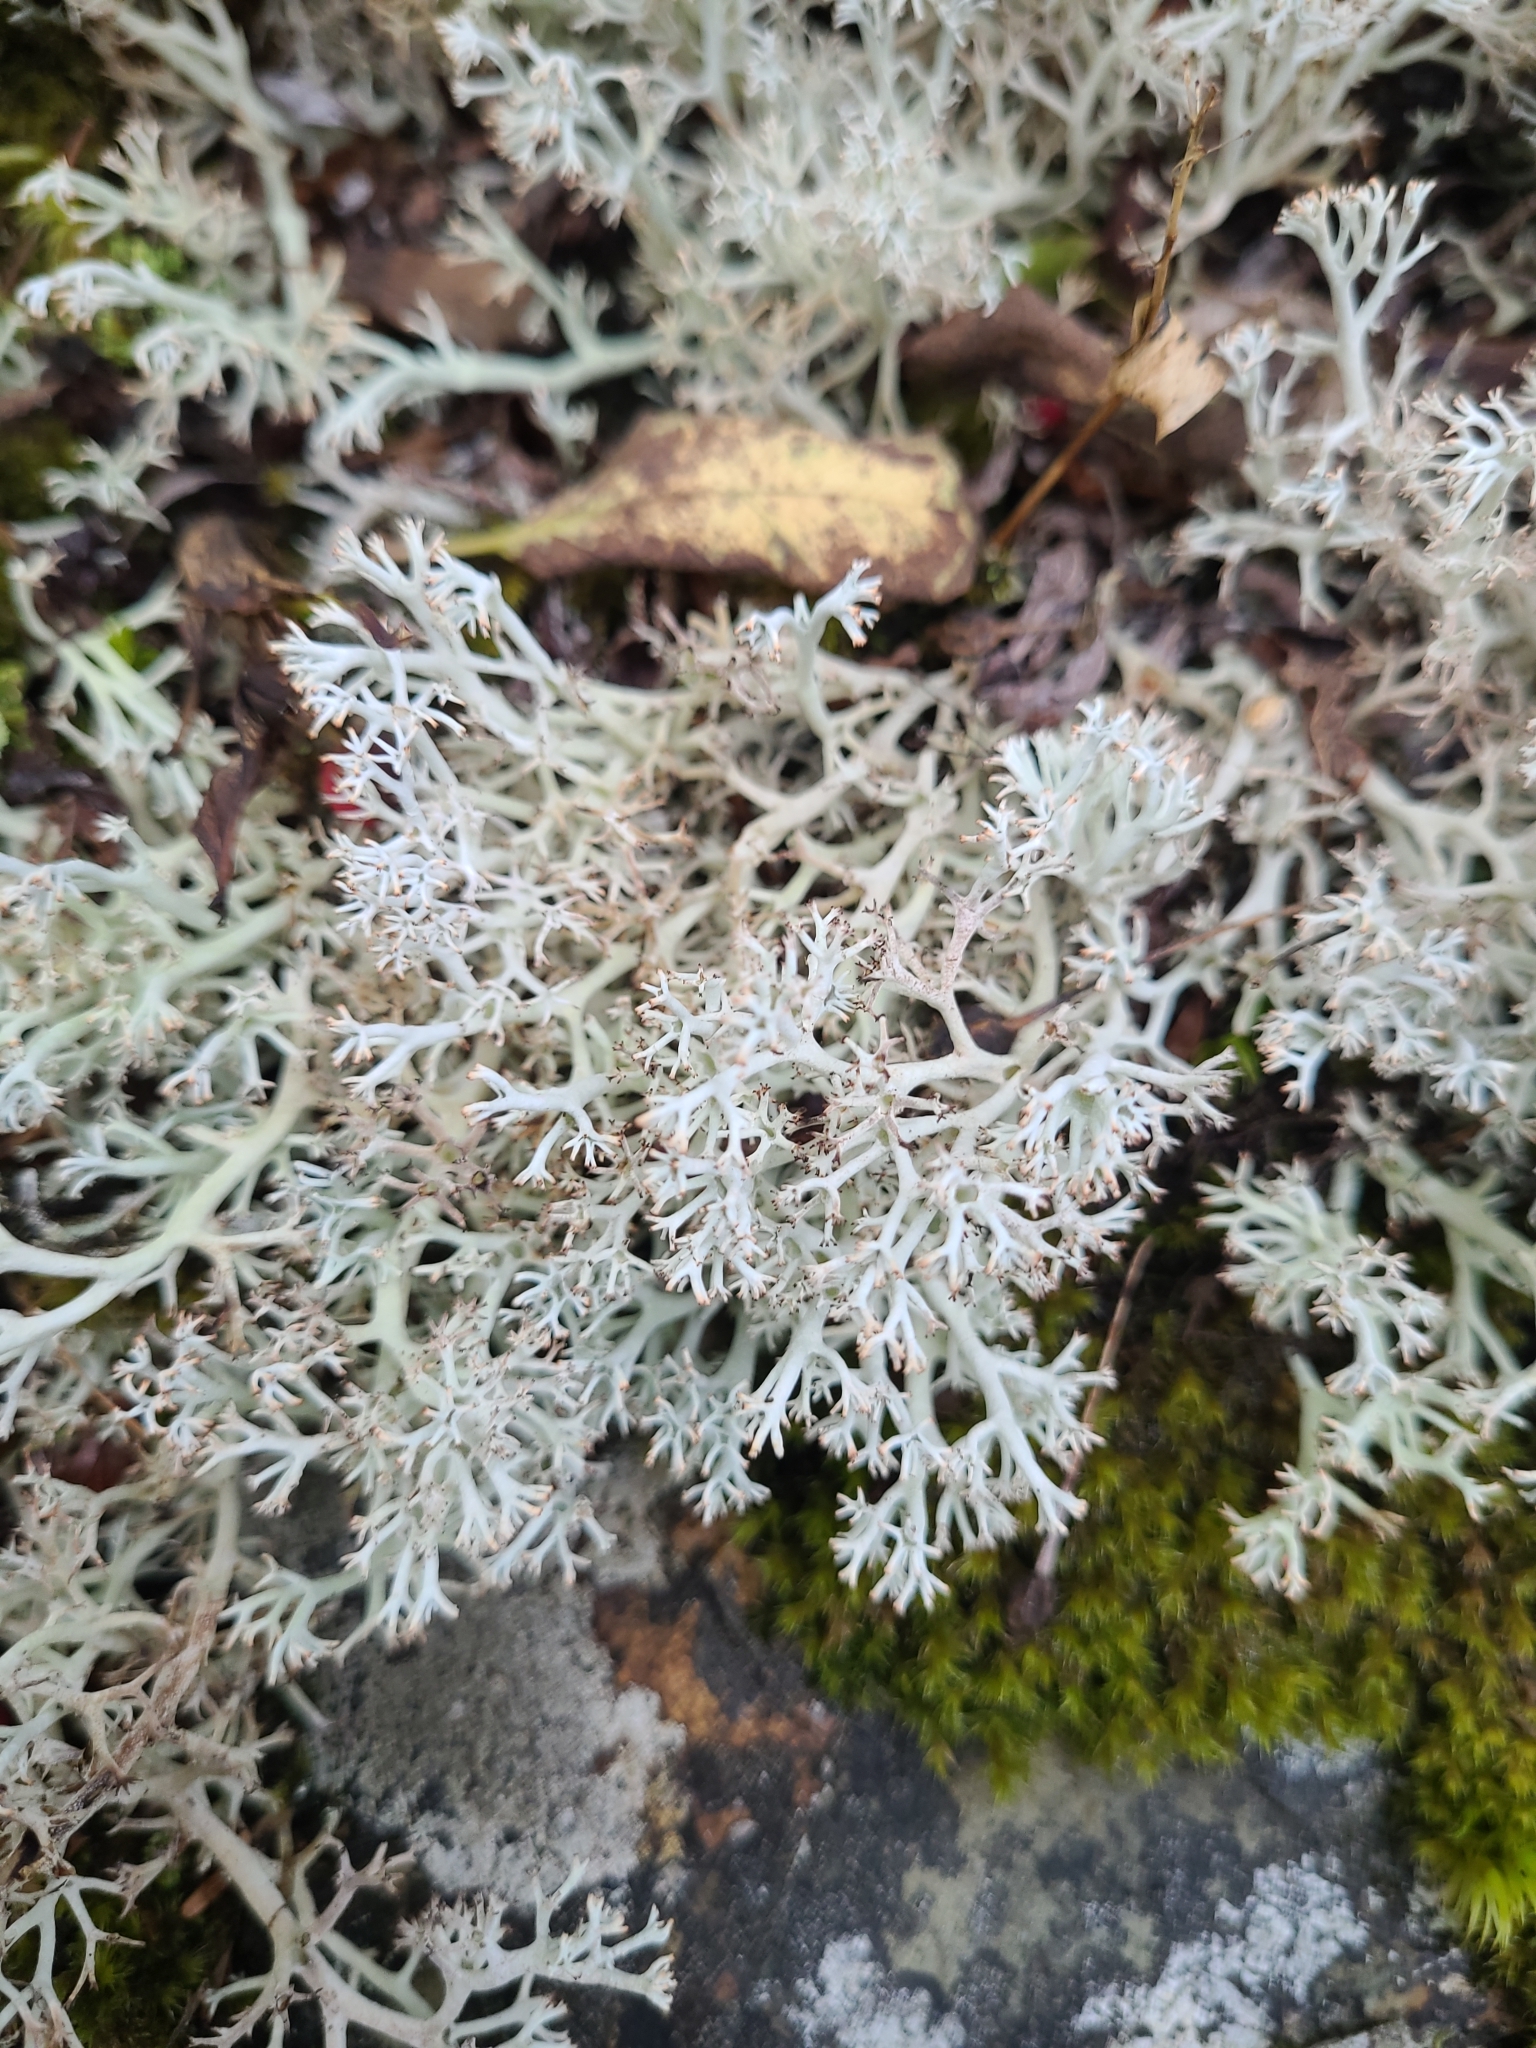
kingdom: Fungi
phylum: Ascomycota
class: Lecanoromycetes
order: Lecanorales
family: Cladoniaceae
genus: Cladonia
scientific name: Cladonia rangiferina
